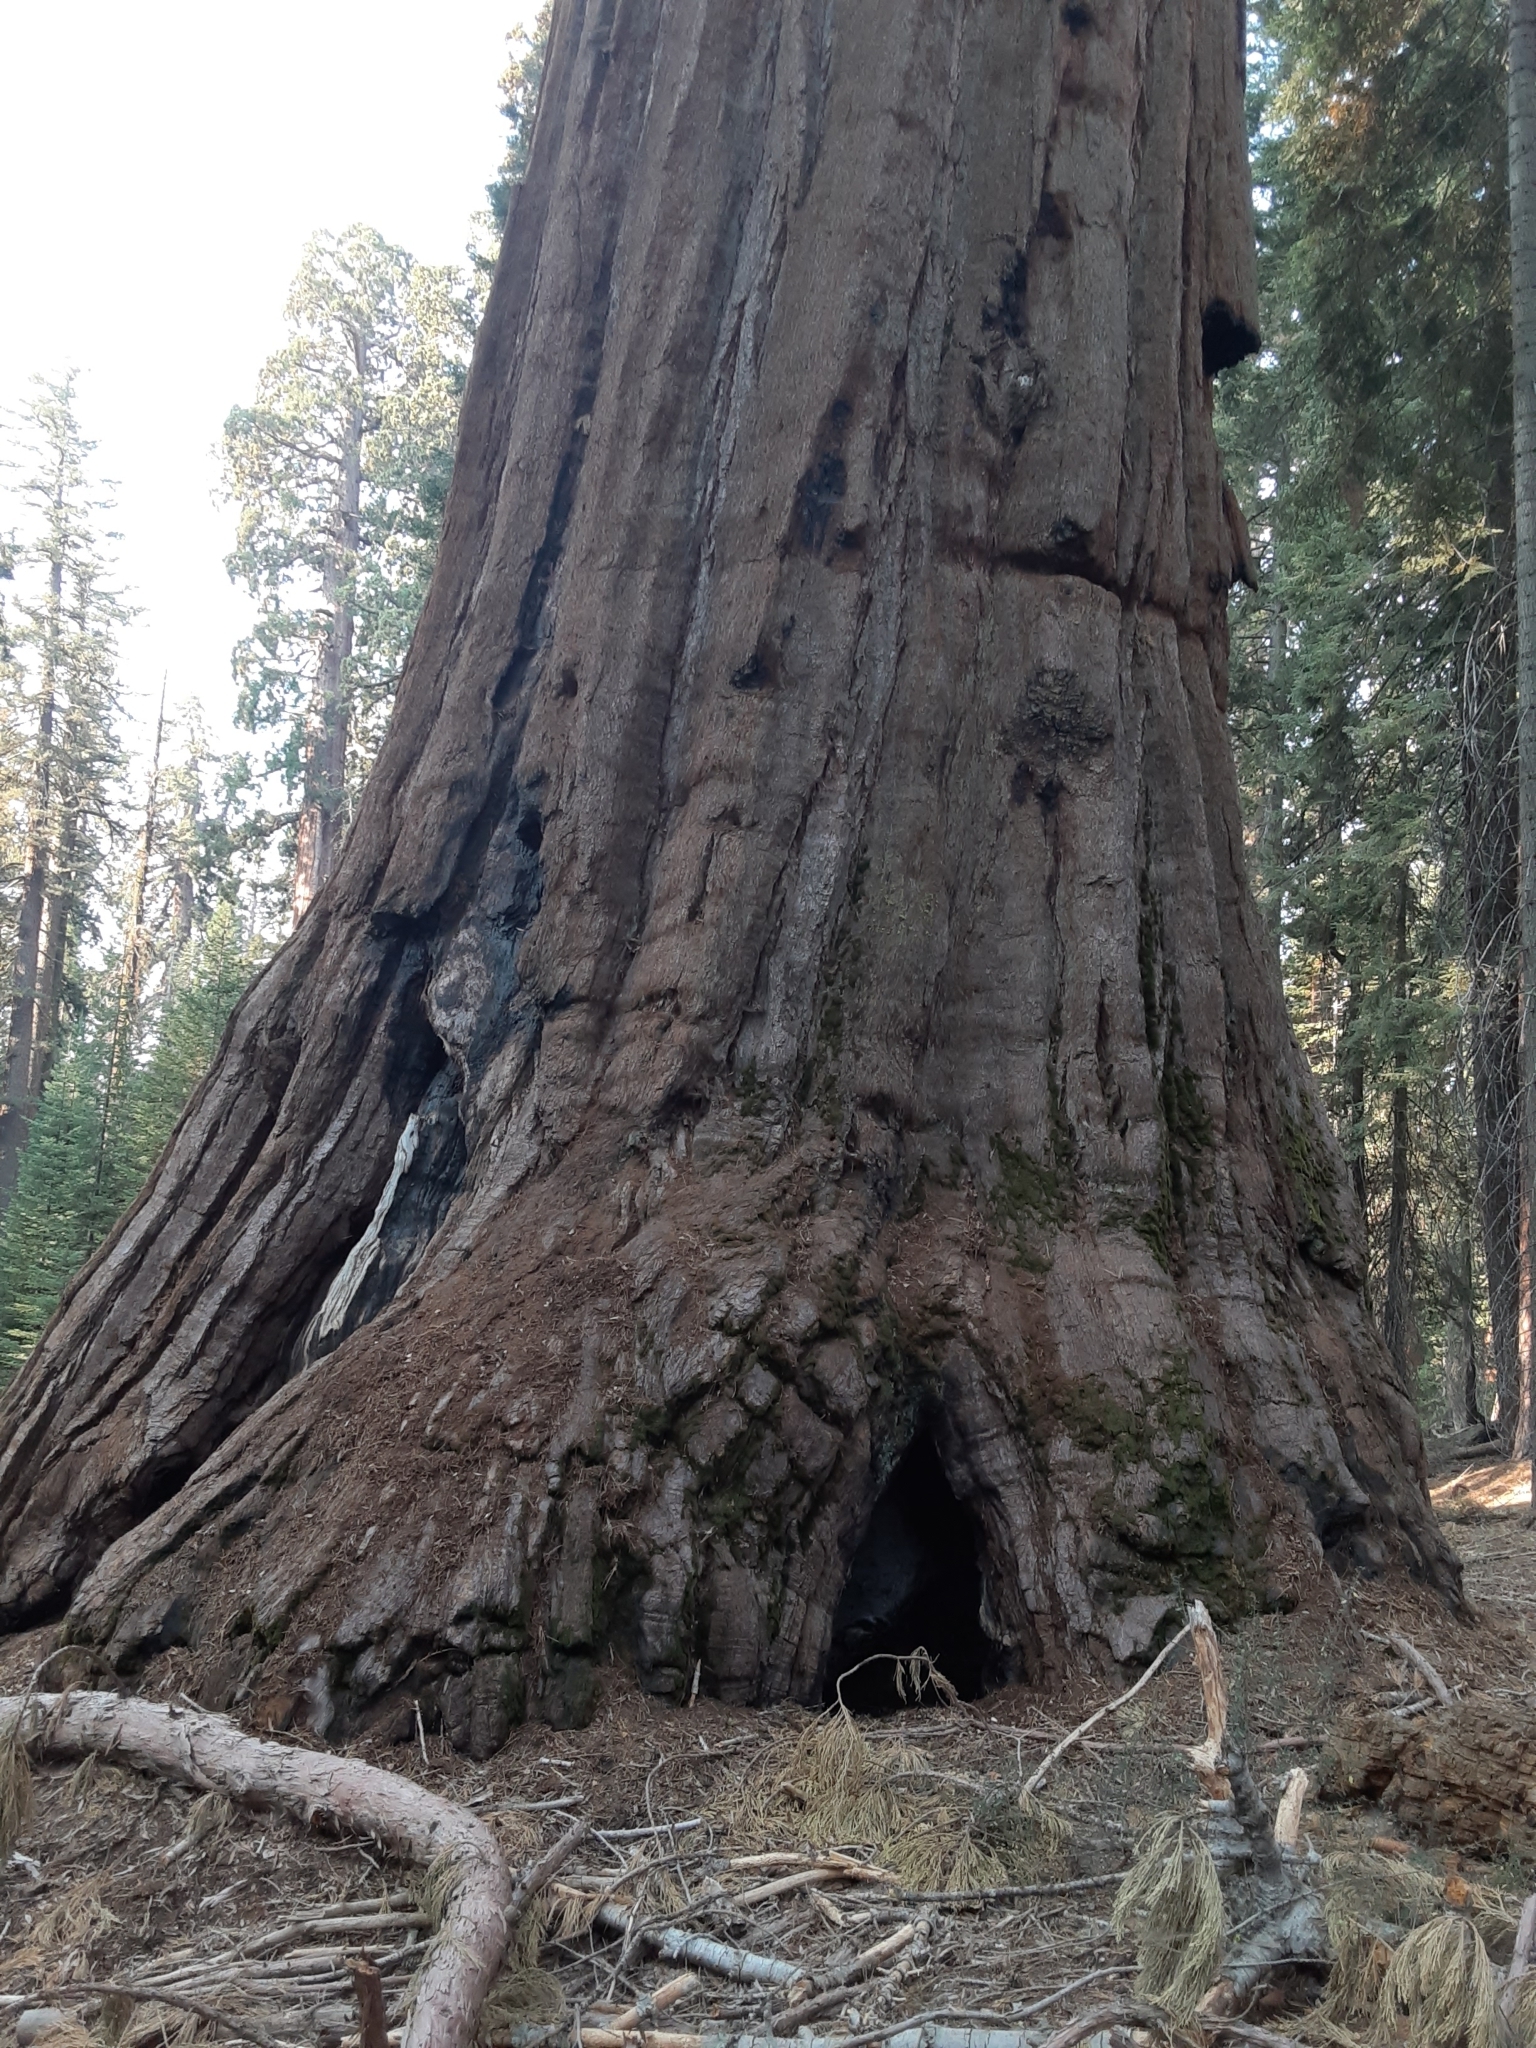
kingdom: Plantae
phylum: Tracheophyta
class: Pinopsida
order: Pinales
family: Cupressaceae
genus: Sequoiadendron
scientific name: Sequoiadendron giganteum
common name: Wellingtonia
